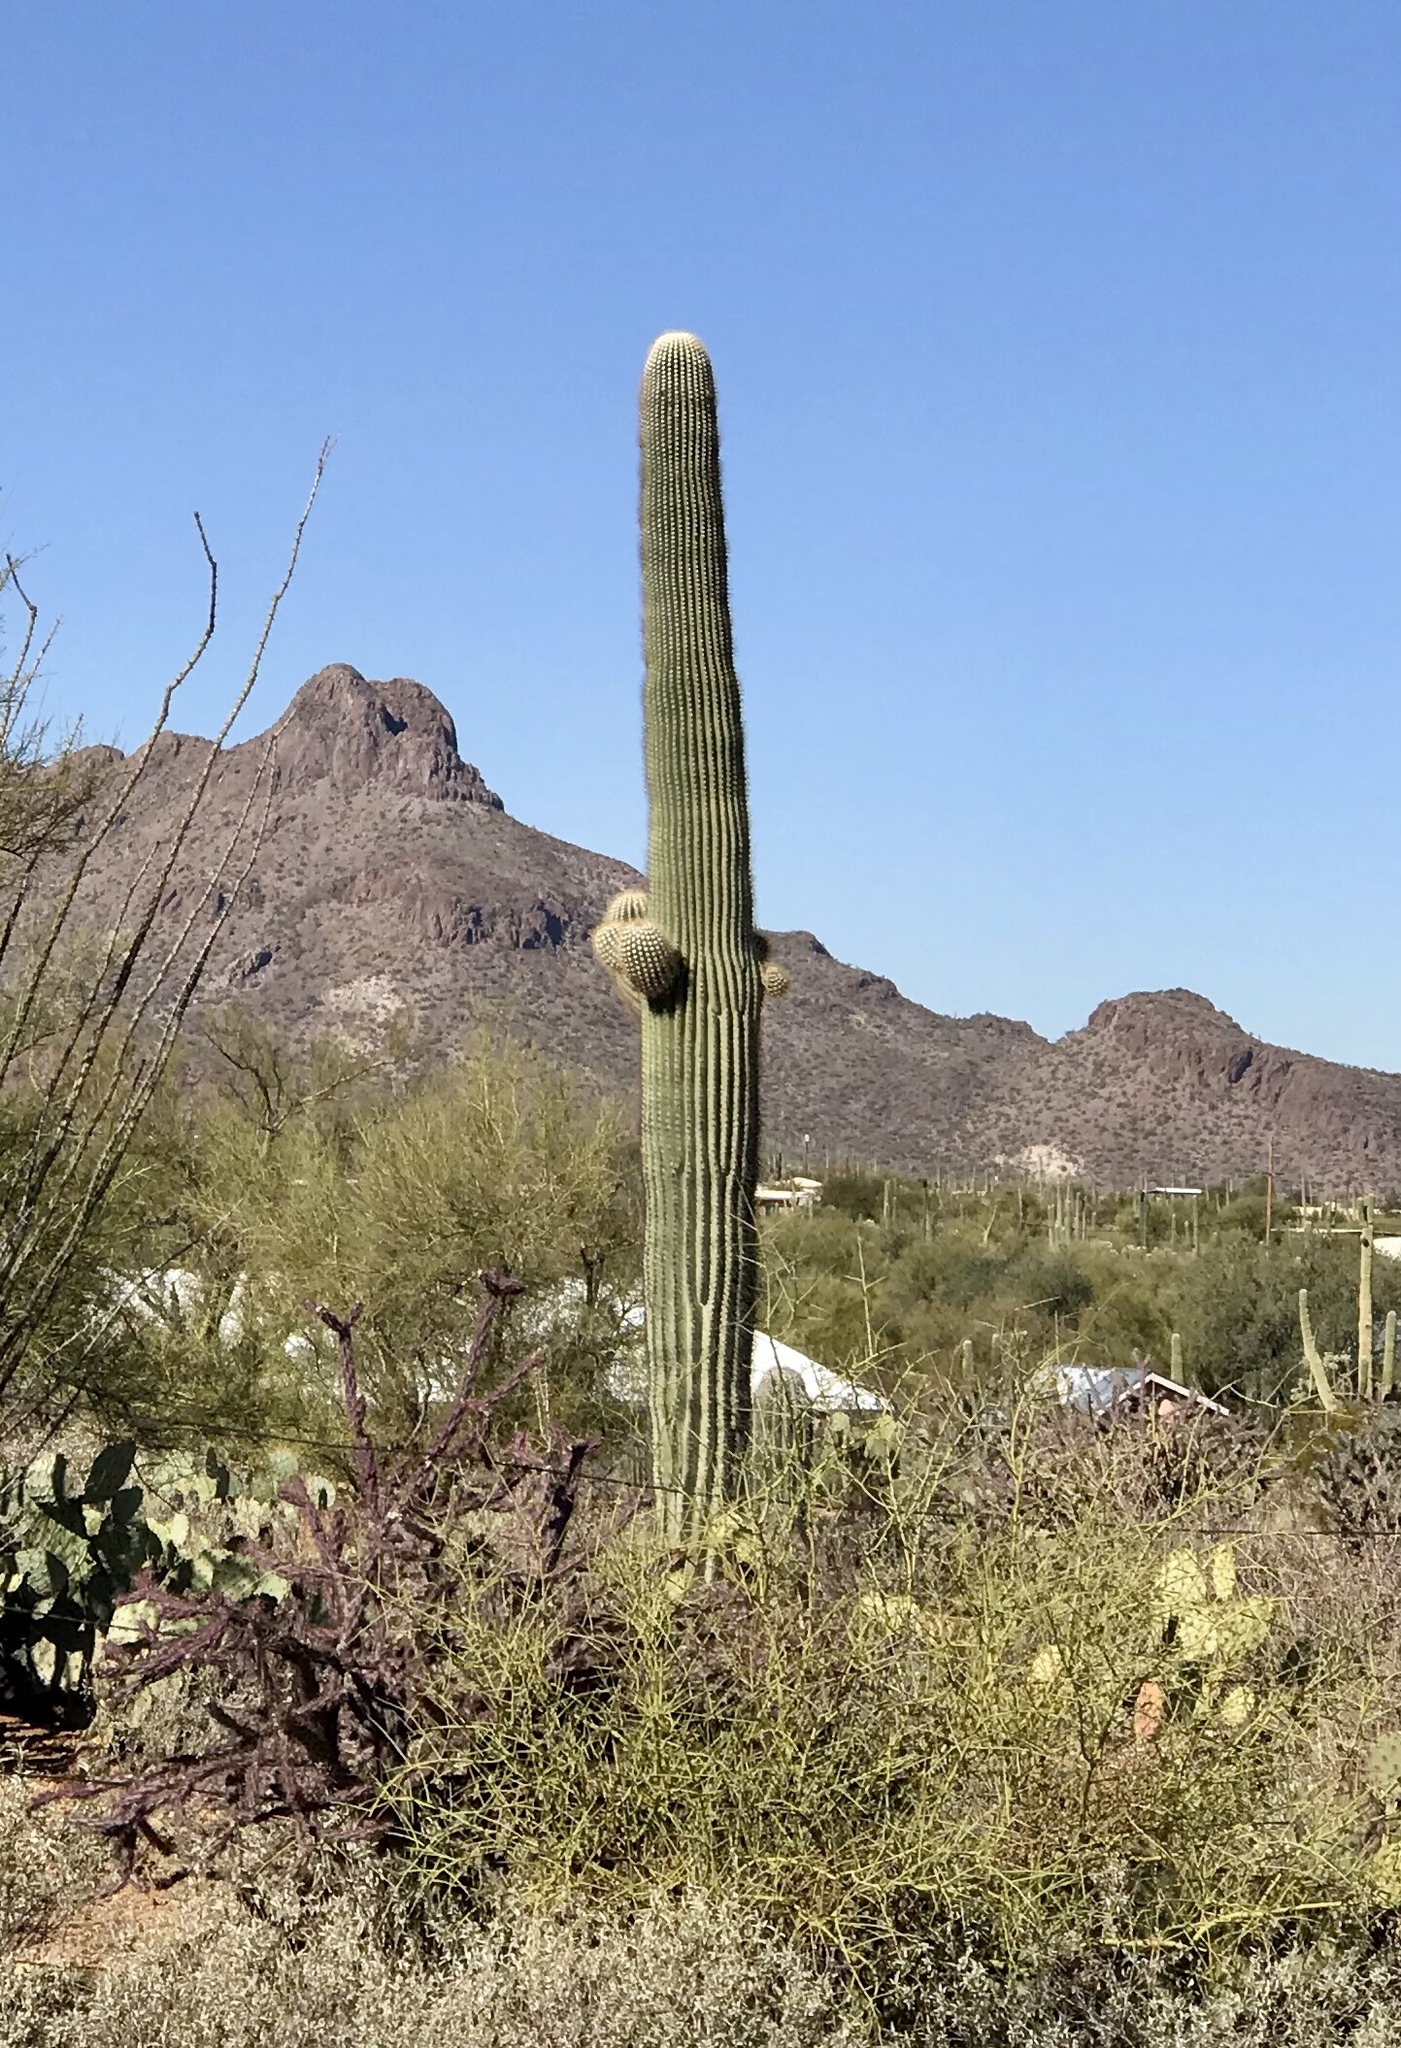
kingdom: Plantae
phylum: Tracheophyta
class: Magnoliopsida
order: Caryophyllales
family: Cactaceae
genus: Carnegiea
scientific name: Carnegiea gigantea
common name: Saguaro
